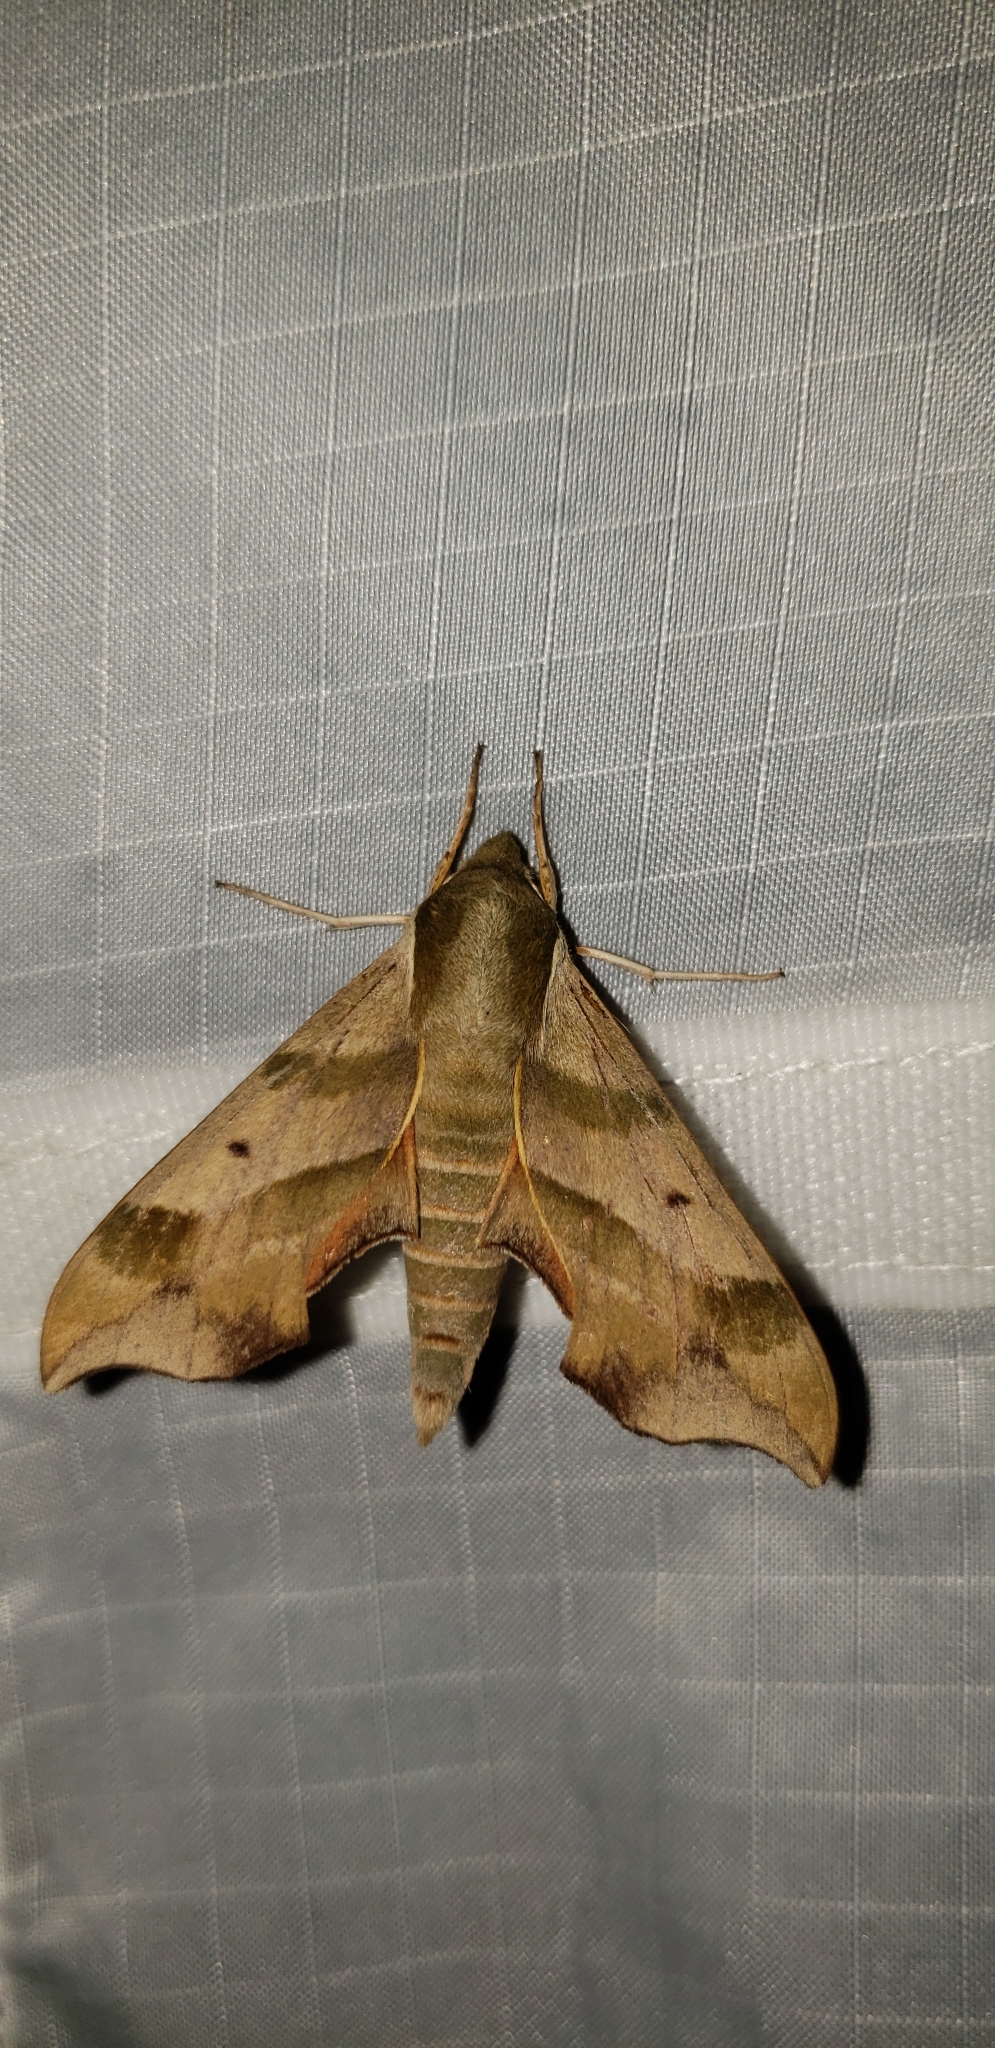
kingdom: Animalia
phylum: Arthropoda
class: Insecta
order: Lepidoptera
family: Sphingidae
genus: Darapsa
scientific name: Darapsa myron
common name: Hog sphinx
